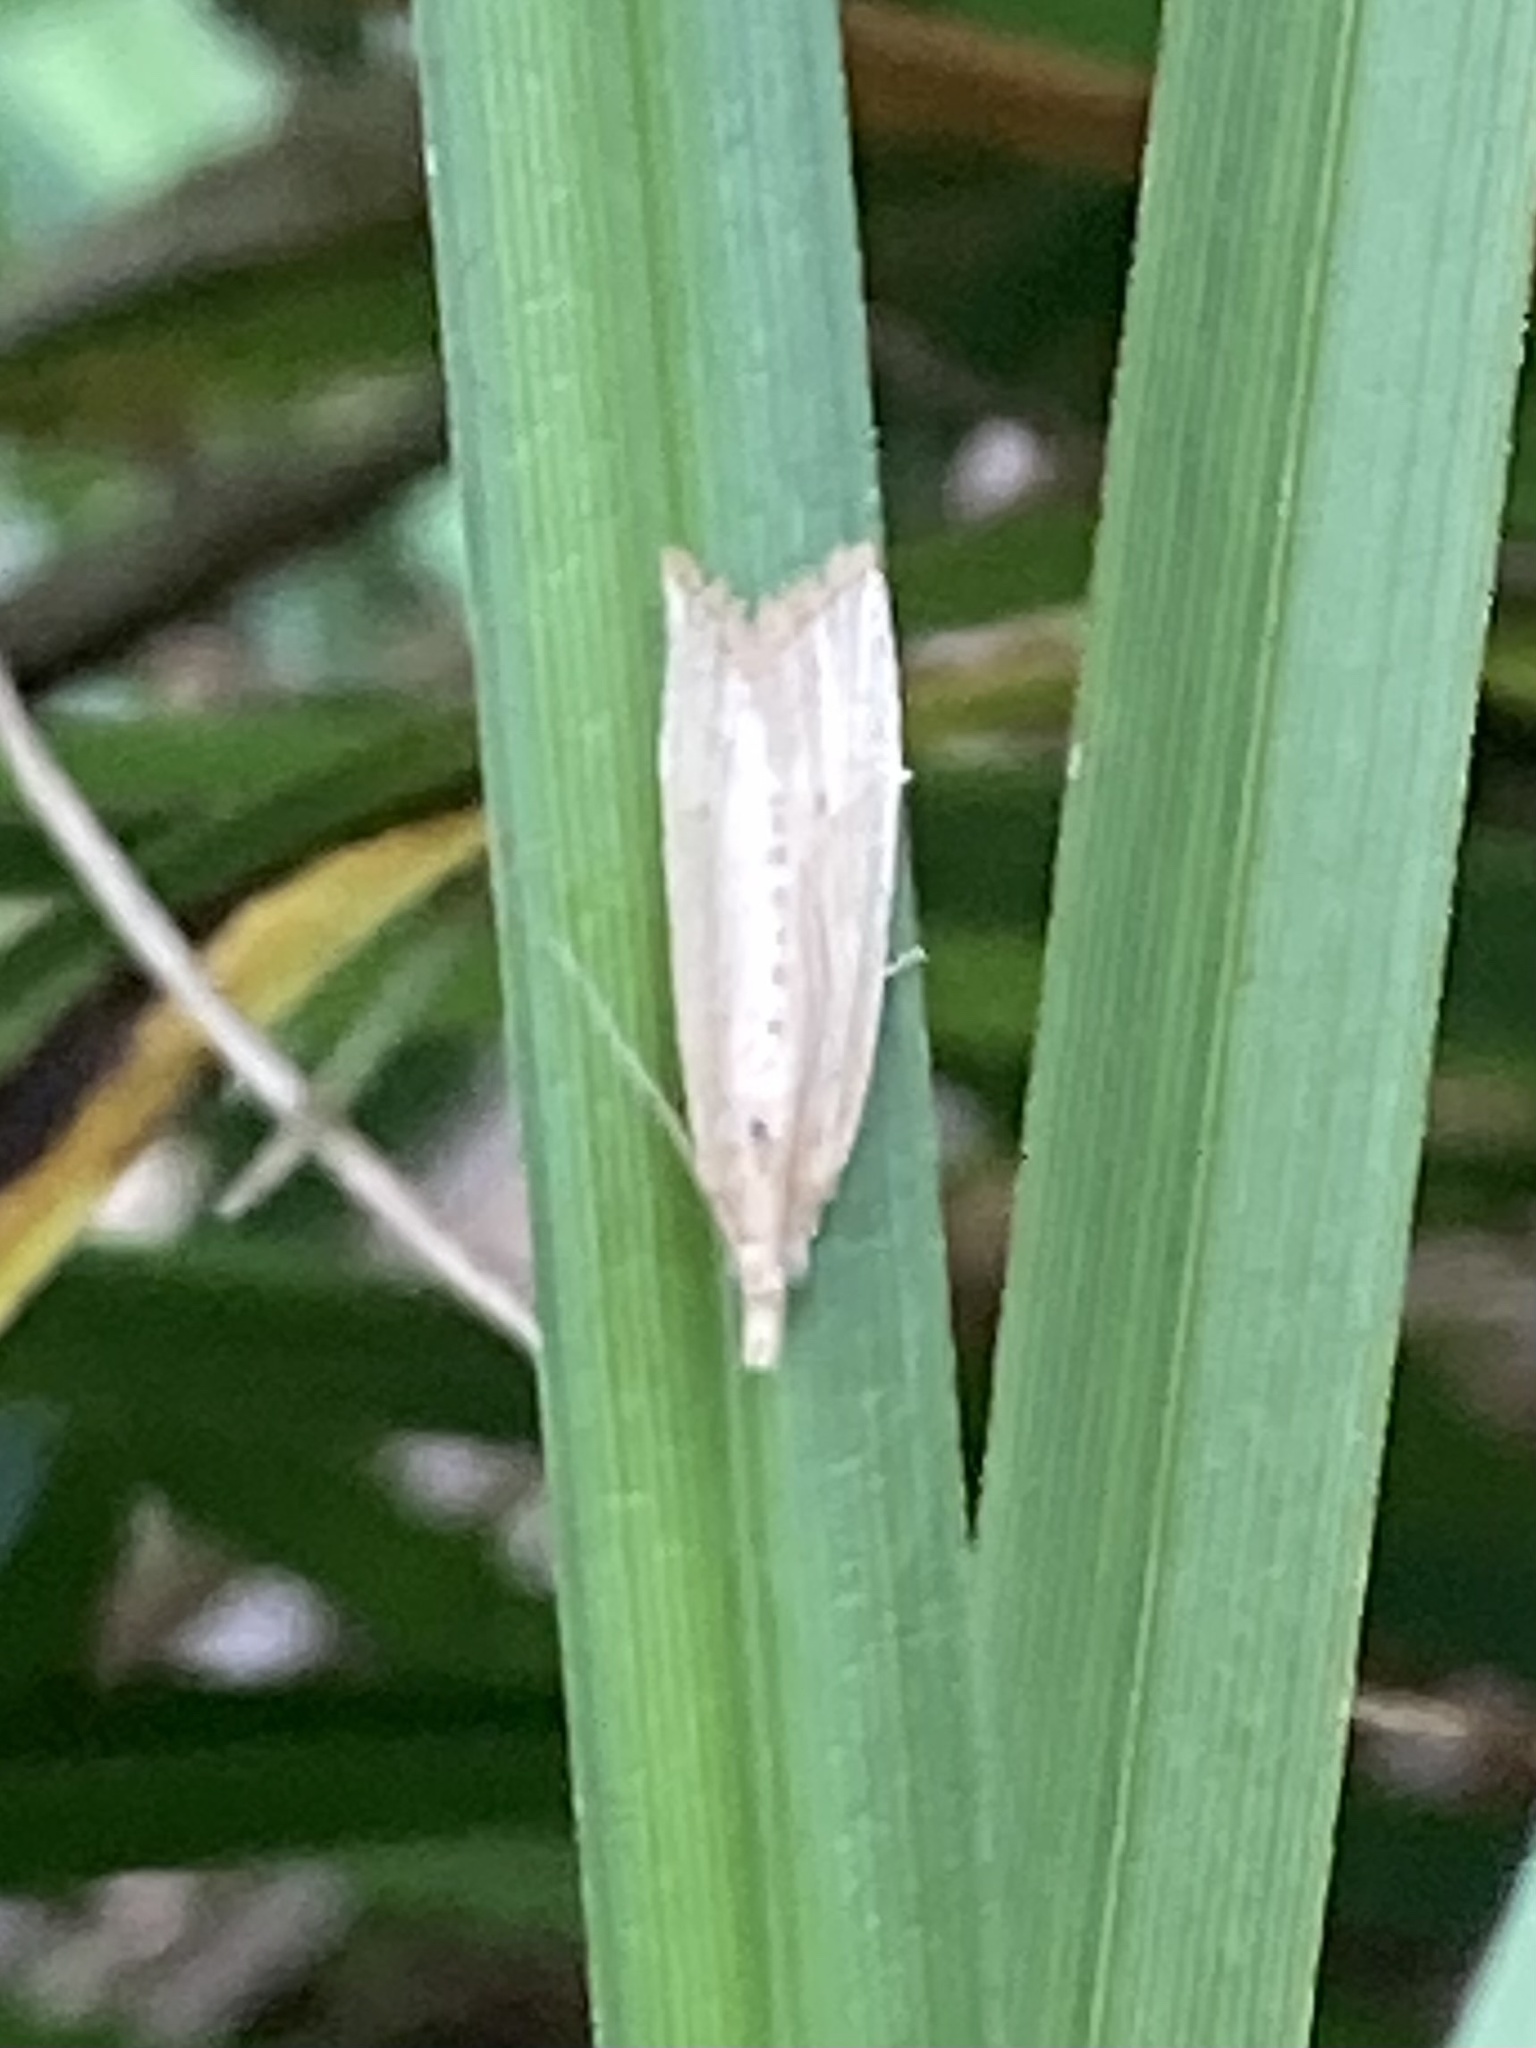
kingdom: Animalia
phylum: Arthropoda
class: Insecta
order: Lepidoptera
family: Tortricidae
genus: Bactra
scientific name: Bactra noteraula
